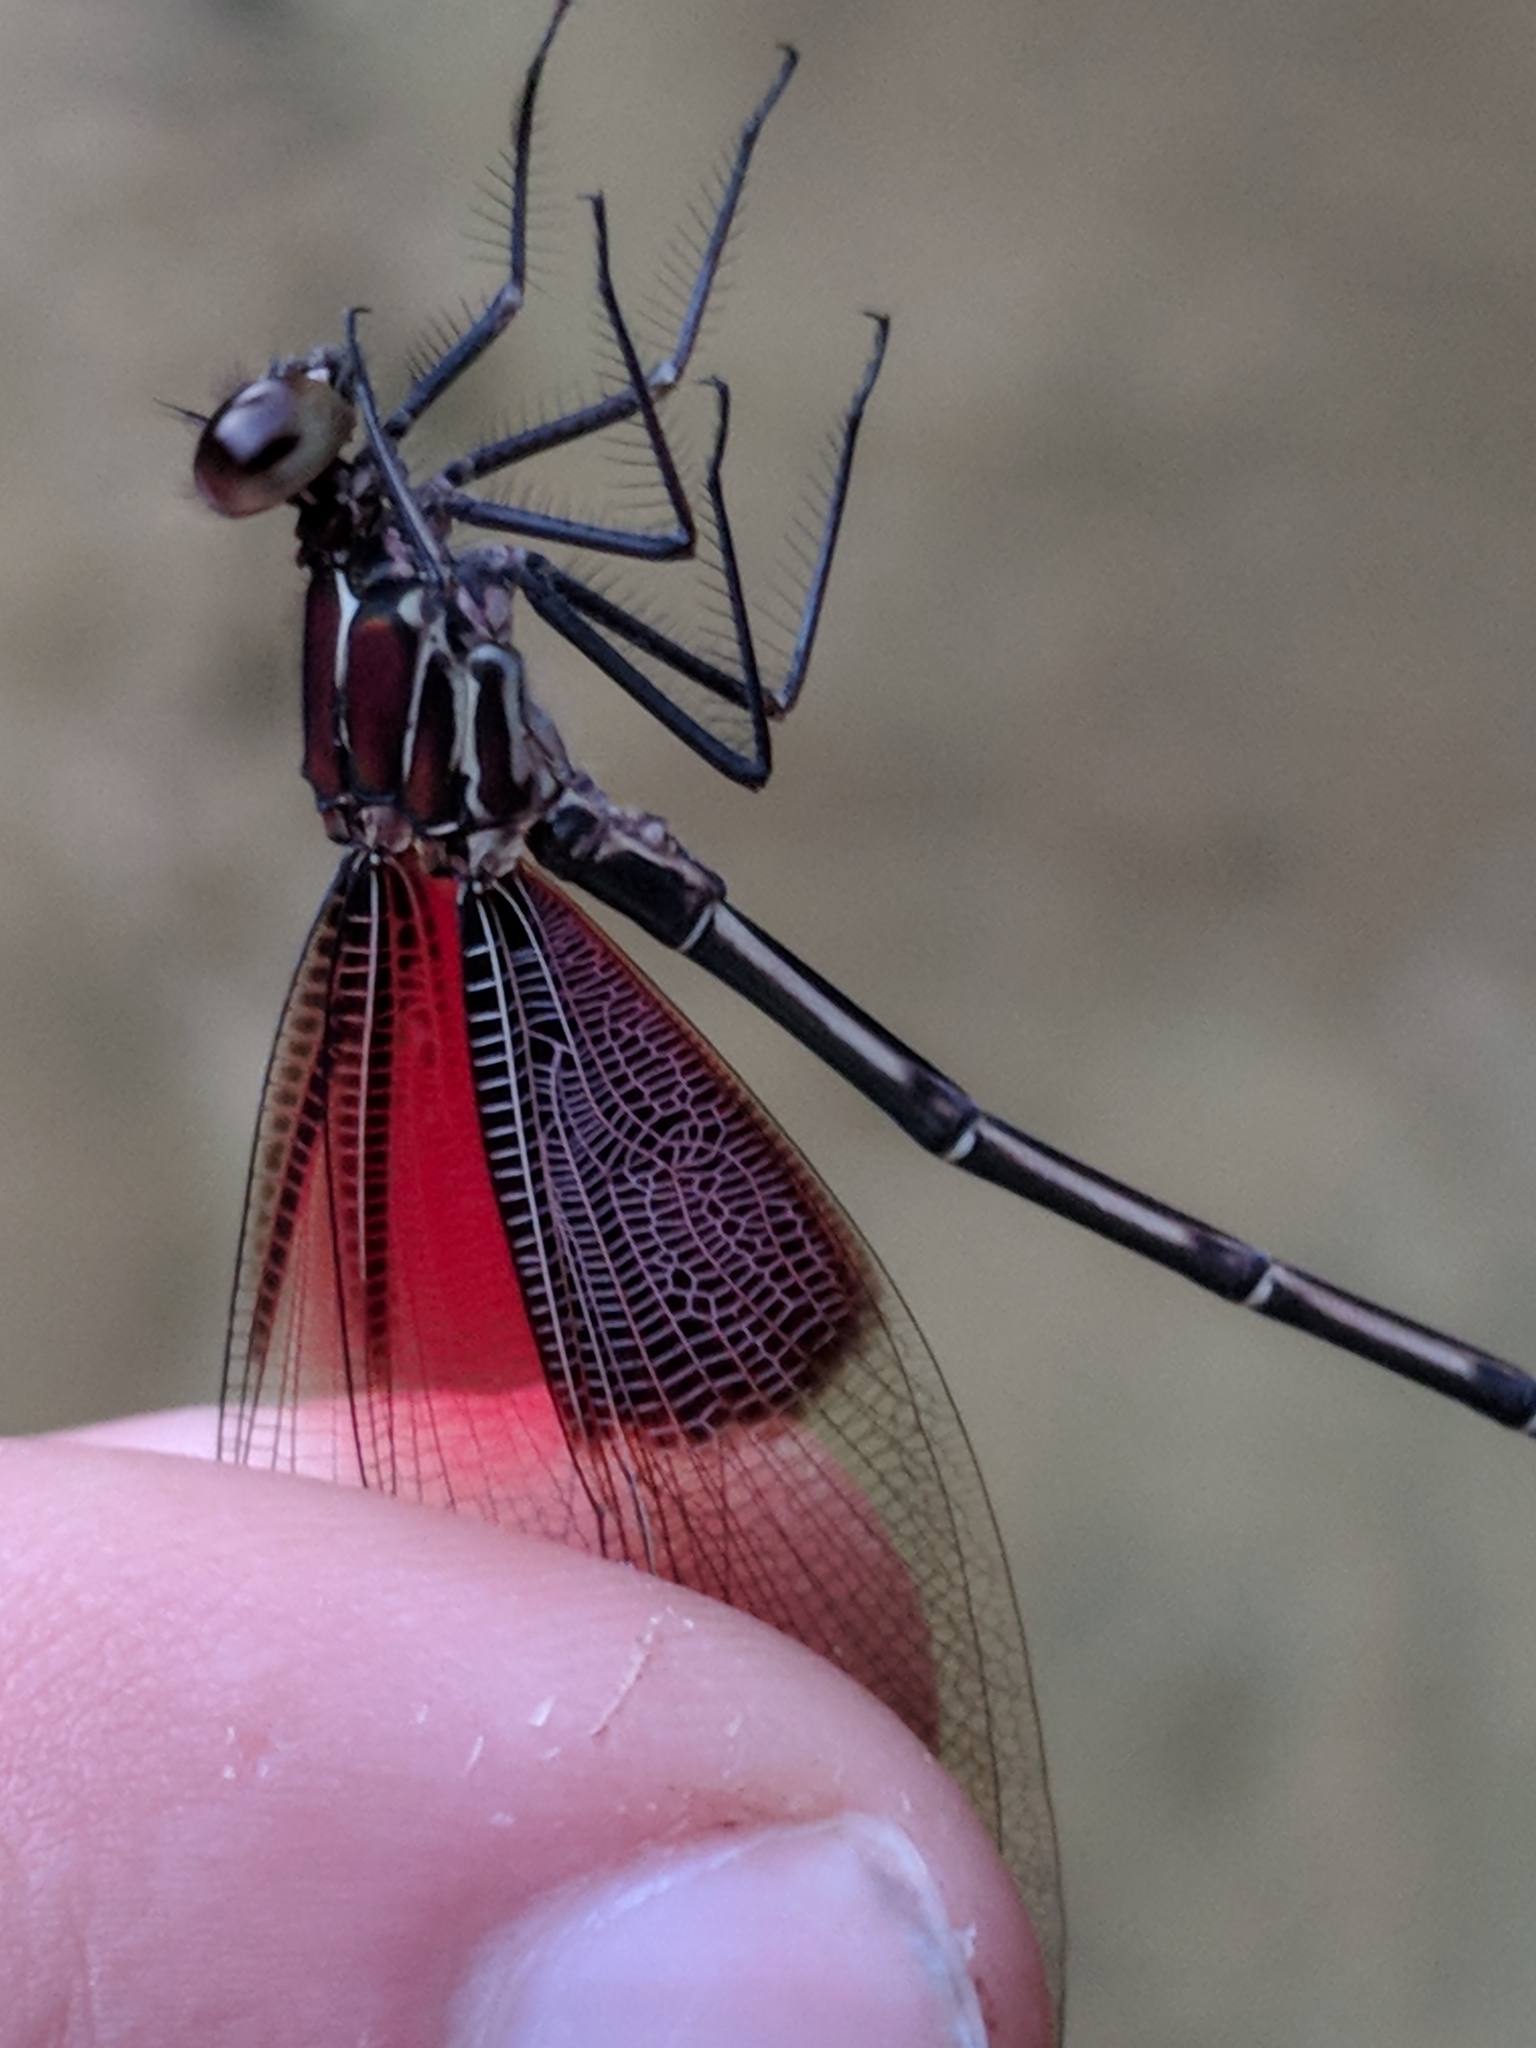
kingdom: Animalia
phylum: Arthropoda
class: Insecta
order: Odonata
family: Calopterygidae
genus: Hetaerina
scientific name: Hetaerina americana
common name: American rubyspot
